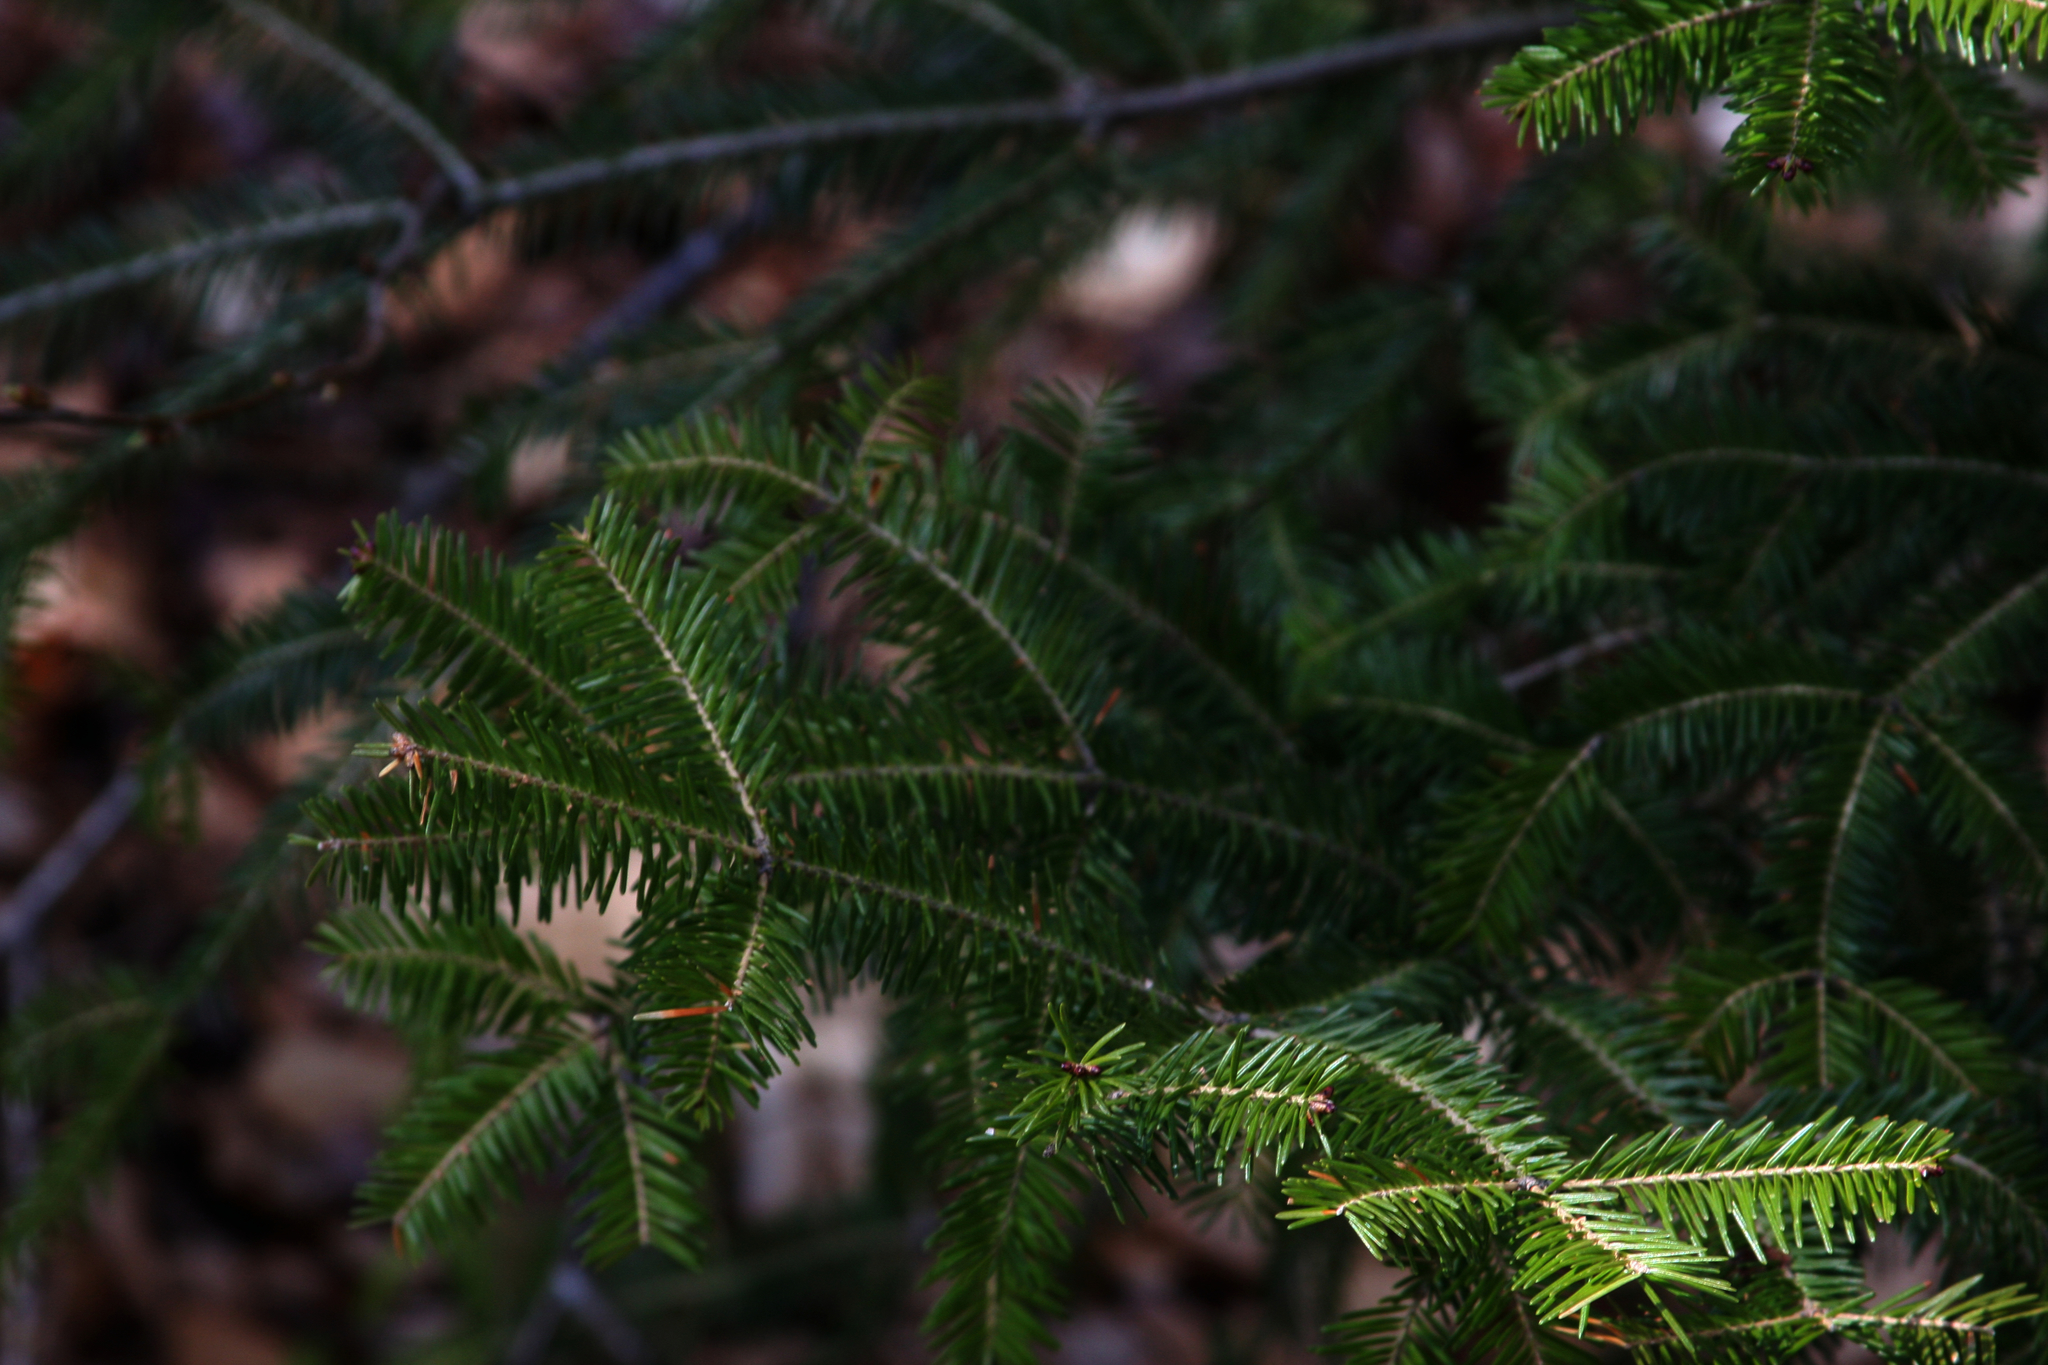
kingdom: Plantae
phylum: Tracheophyta
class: Pinopsida
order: Pinales
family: Pinaceae
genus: Abies
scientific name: Abies balsamea
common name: Balsam fir
